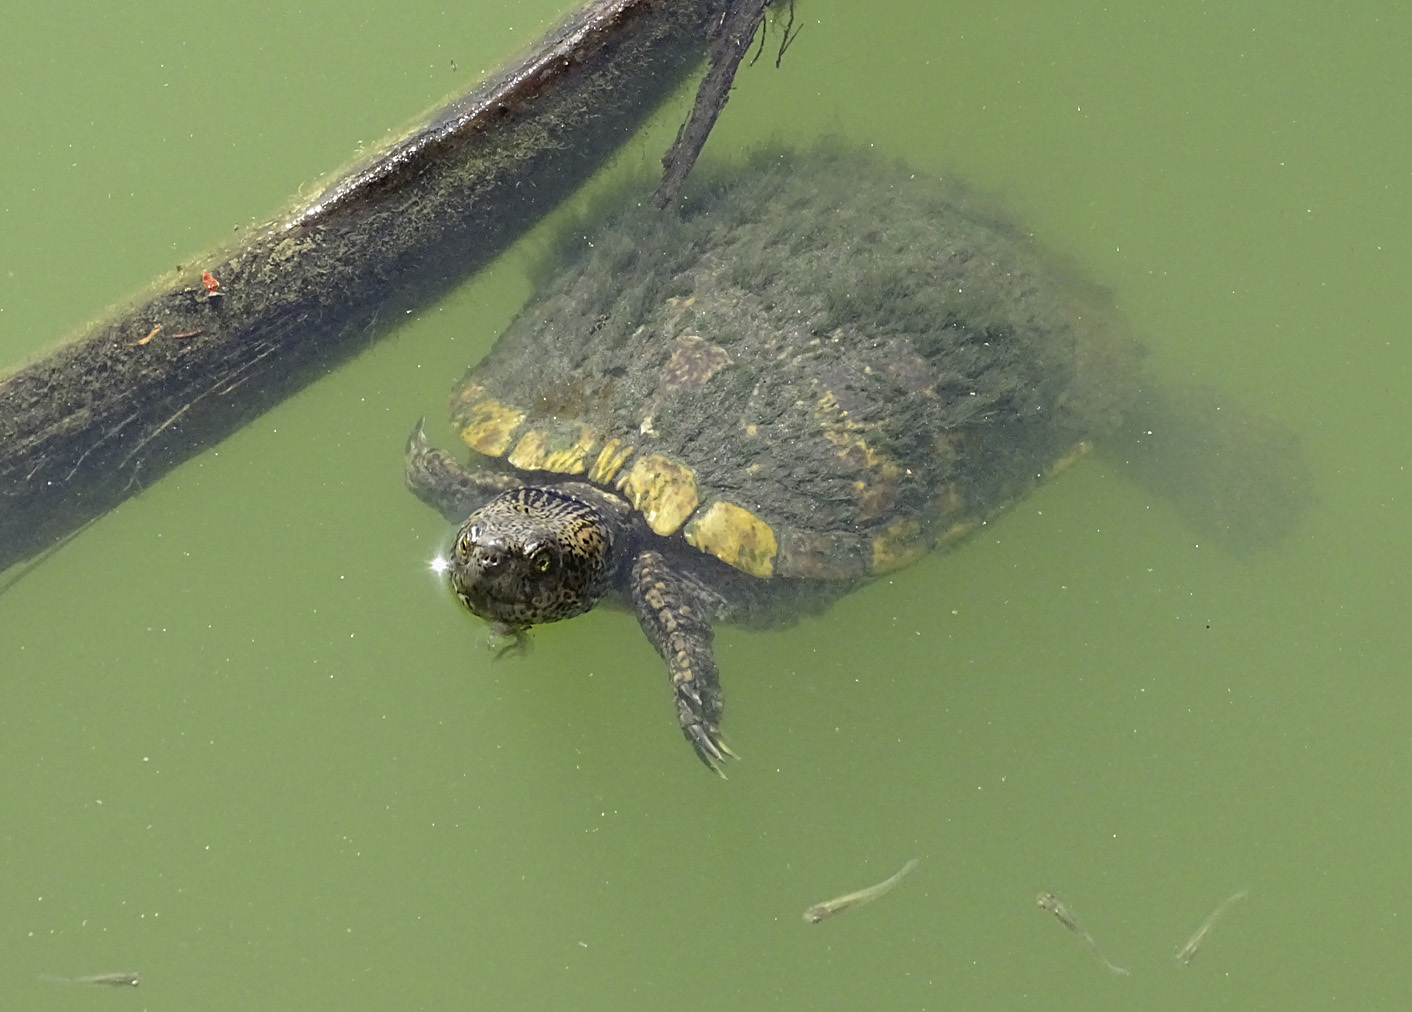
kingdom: Animalia
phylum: Chordata
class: Testudines
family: Emydidae
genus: Trachemys
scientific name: Trachemys scripta
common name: Slider
